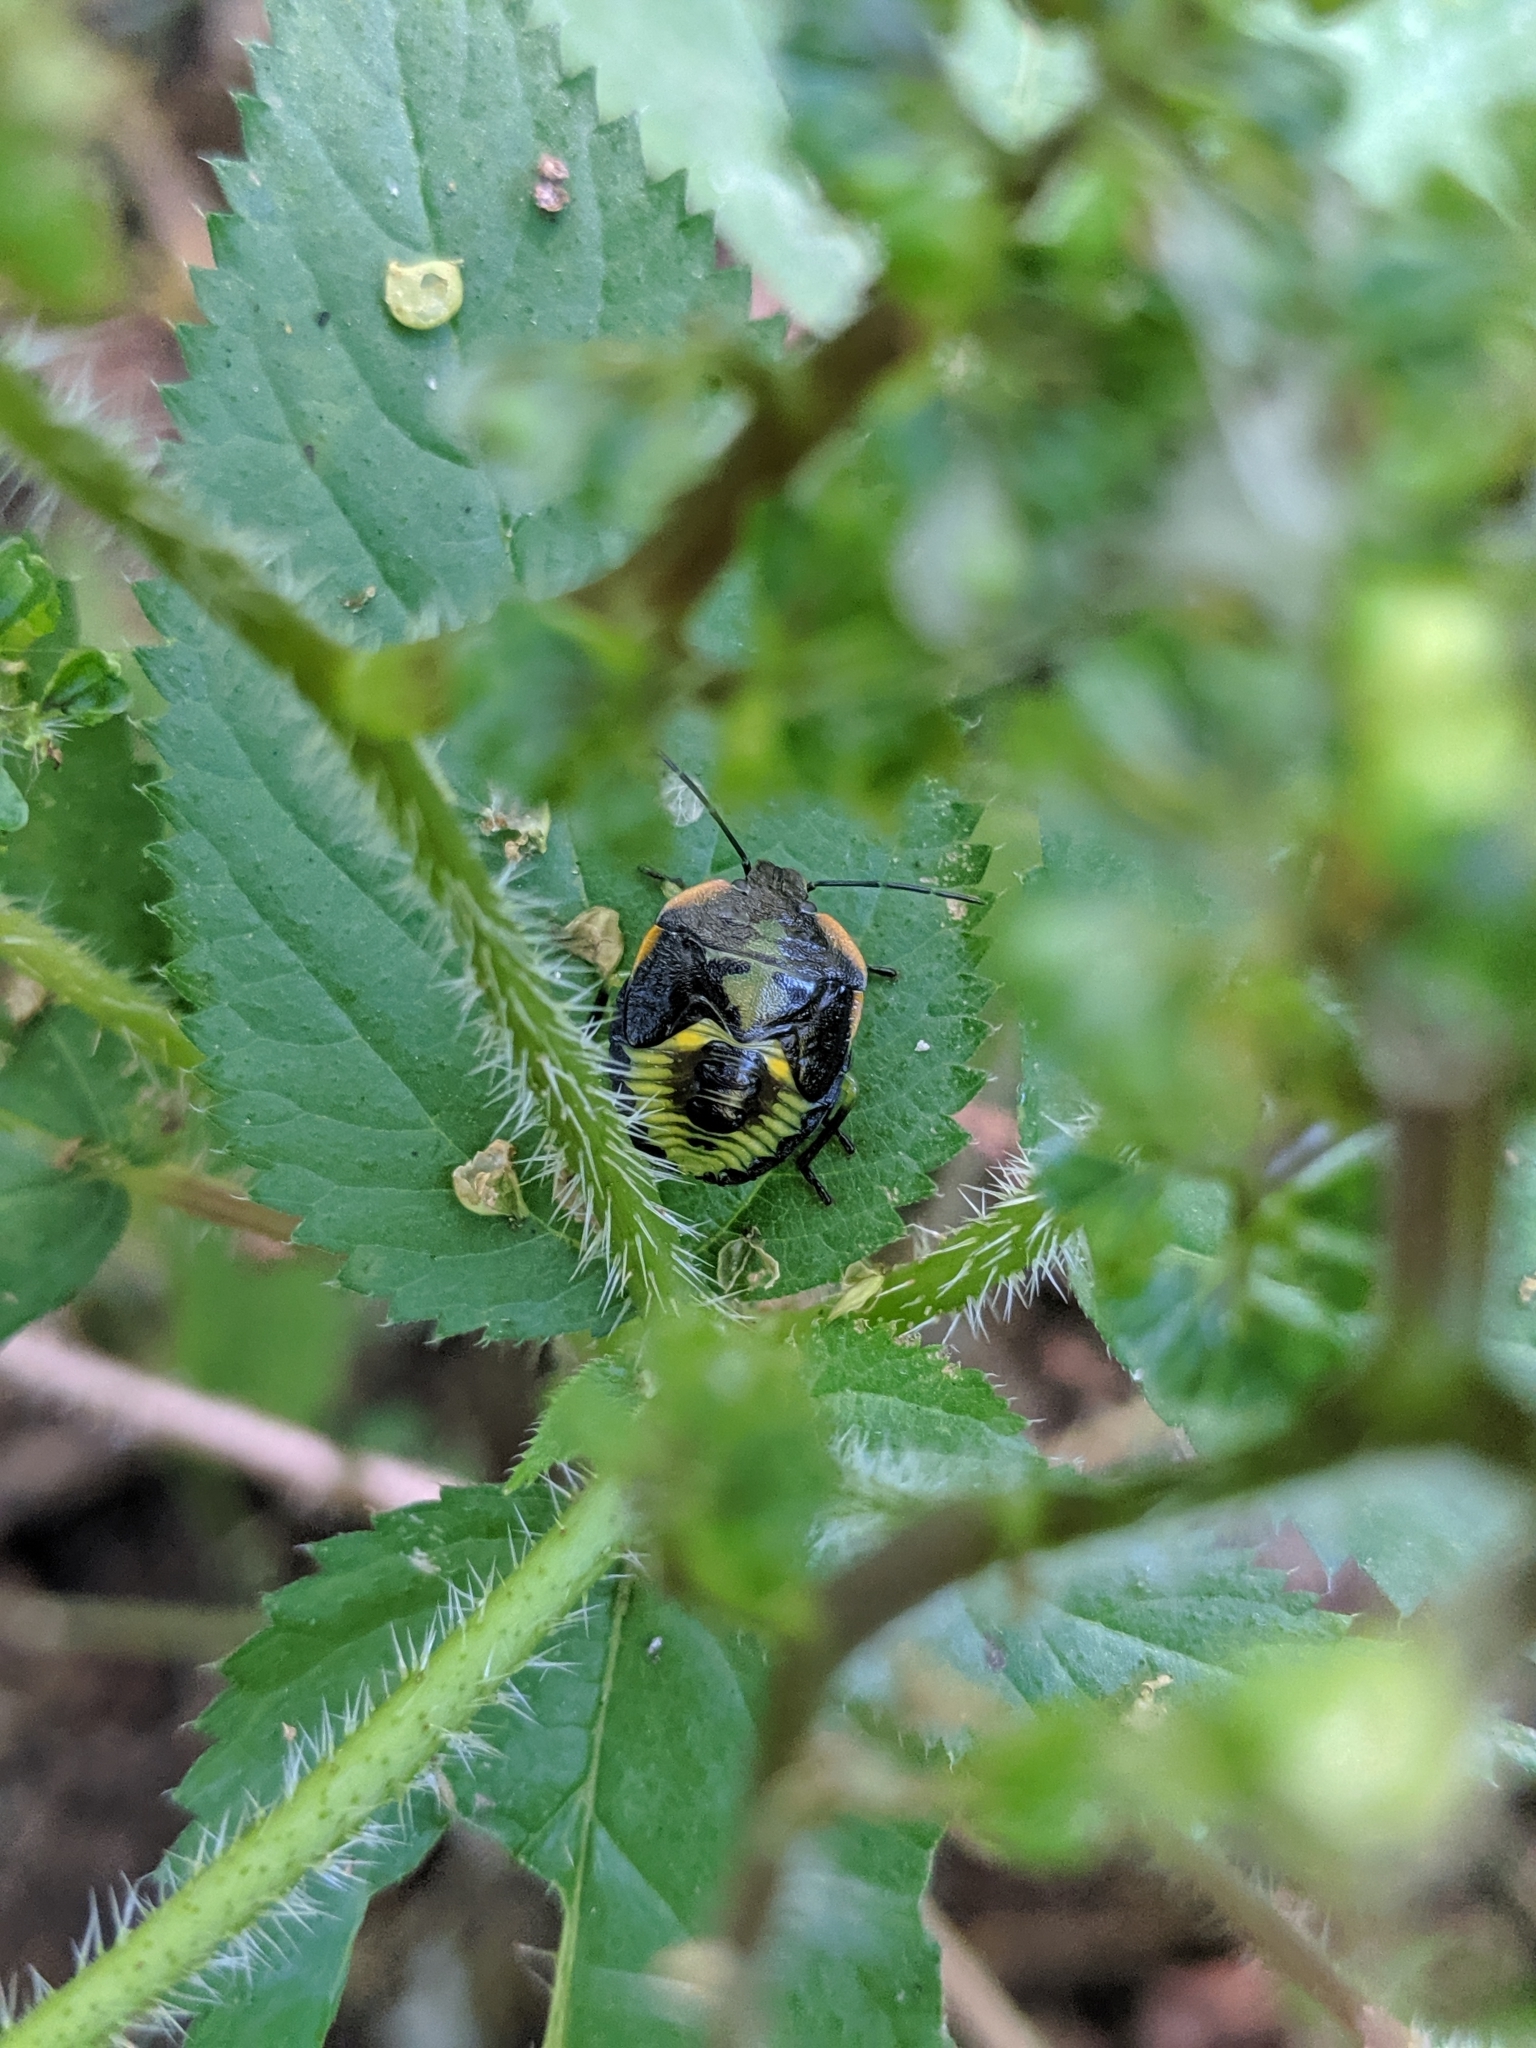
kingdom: Animalia
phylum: Arthropoda
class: Insecta
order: Hemiptera
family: Pentatomidae
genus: Chinavia
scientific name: Chinavia hilaris
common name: Green stink bug
